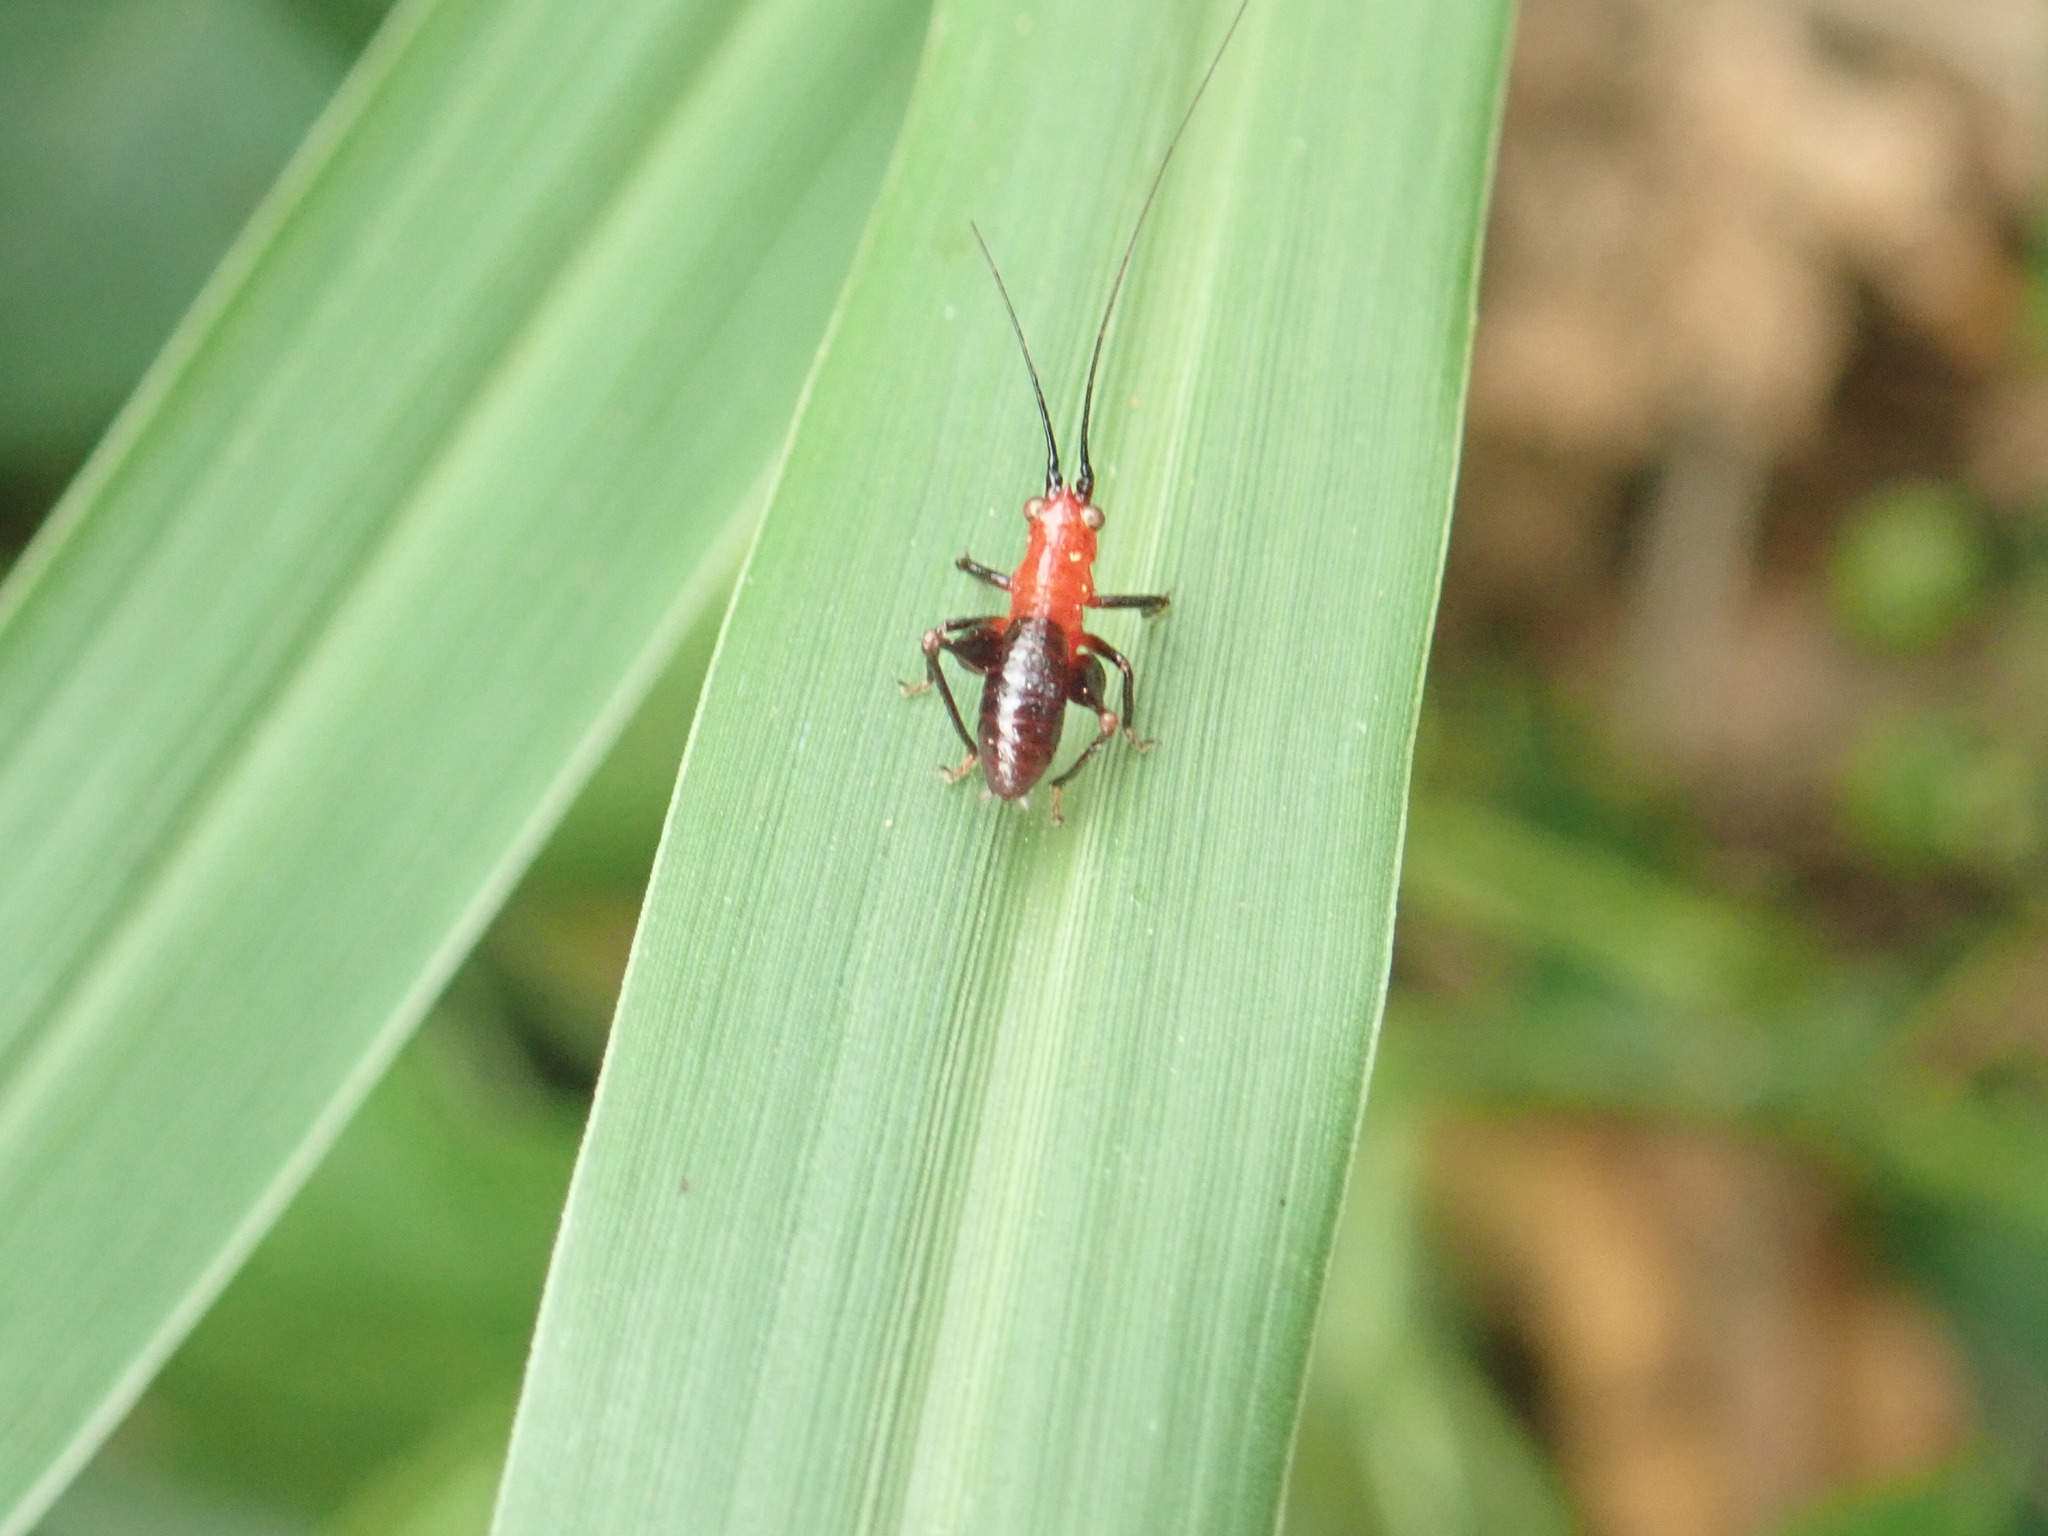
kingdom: Animalia
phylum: Arthropoda
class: Insecta
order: Orthoptera
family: Tettigoniidae
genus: Conocephalus
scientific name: Conocephalus melaenus
